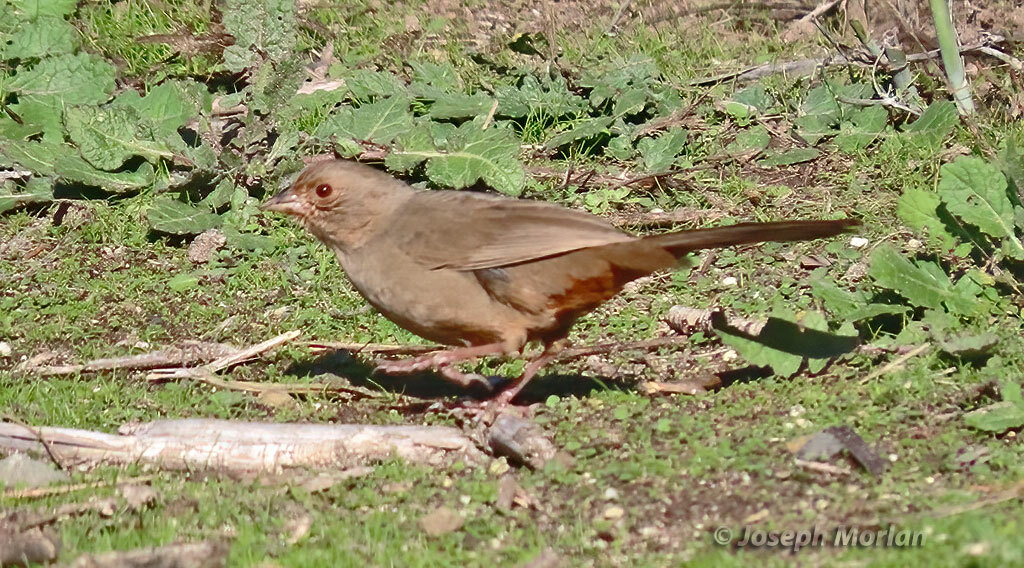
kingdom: Animalia
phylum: Chordata
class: Aves
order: Passeriformes
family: Passerellidae
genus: Melozone
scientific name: Melozone crissalis
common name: California towhee
